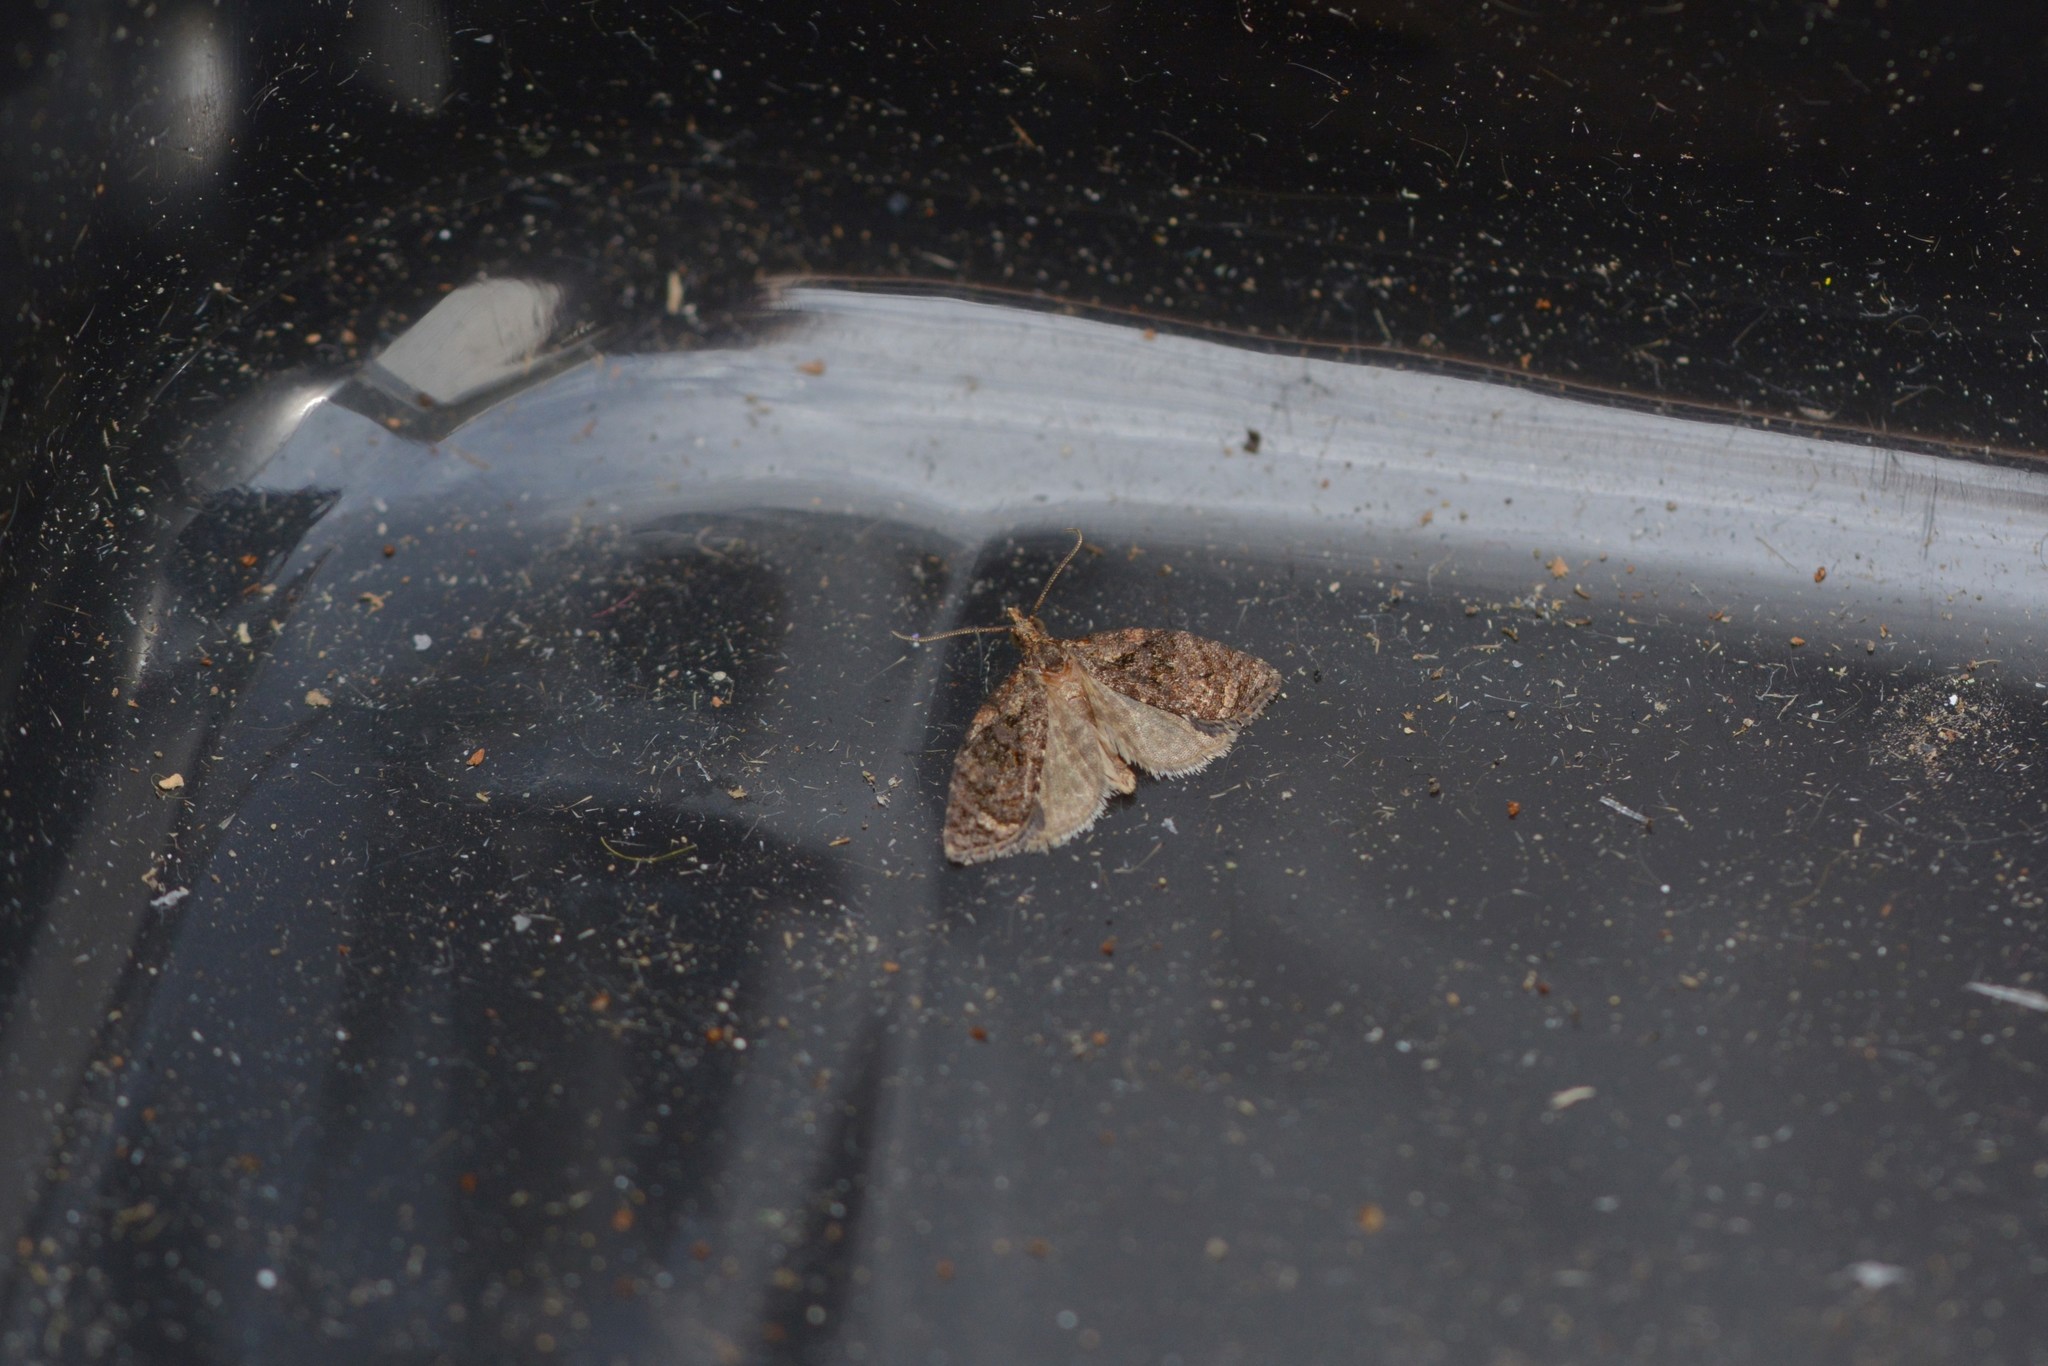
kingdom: Animalia
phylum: Arthropoda
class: Insecta
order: Lepidoptera
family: Tortricidae
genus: Capua
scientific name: Capua intractana
